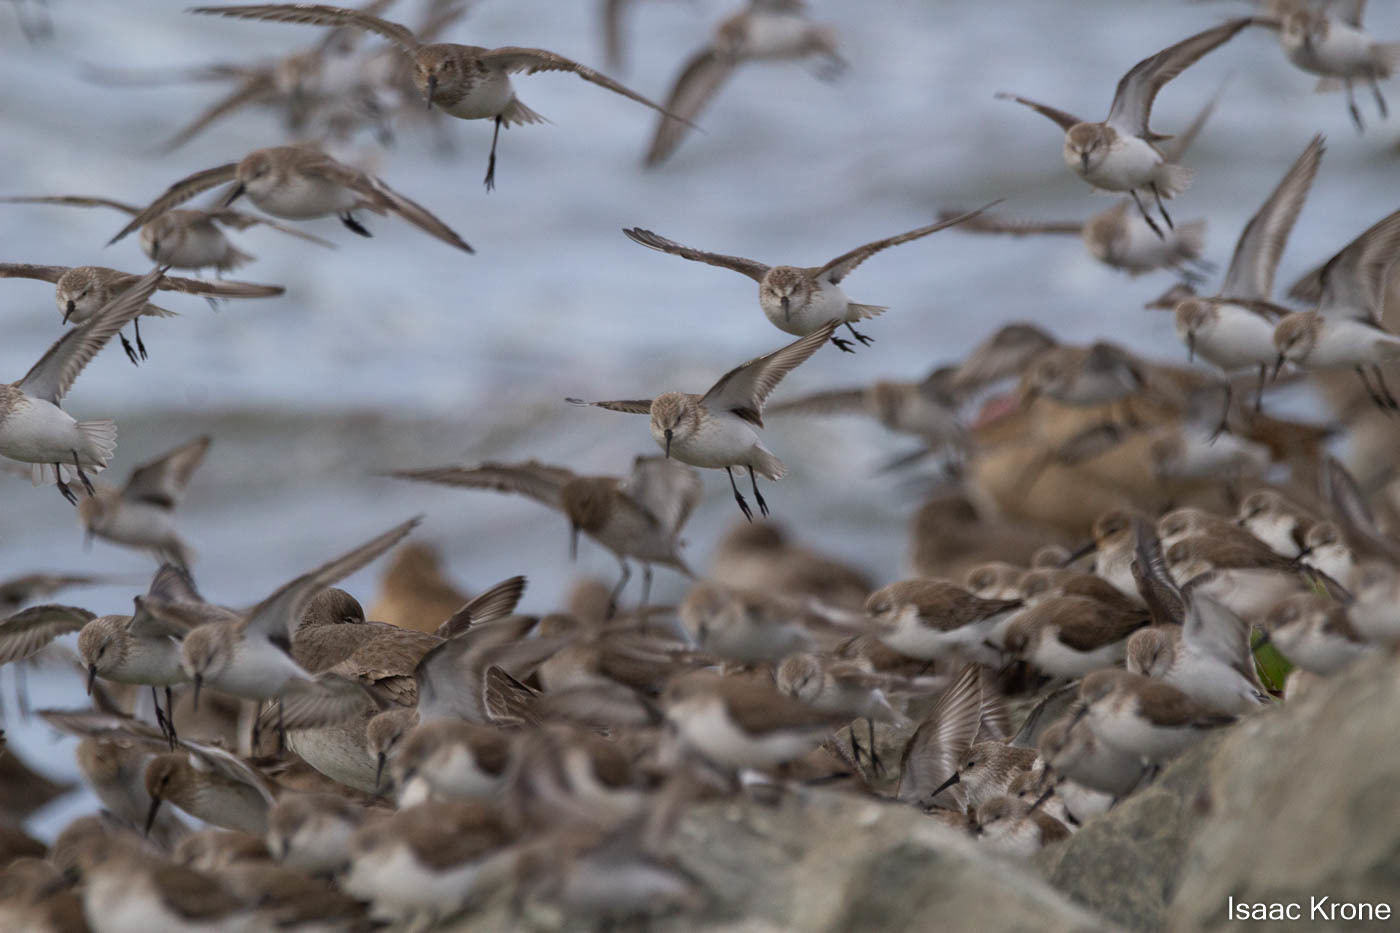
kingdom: Animalia
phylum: Chordata
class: Aves
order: Charadriiformes
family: Scolopacidae
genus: Calidris
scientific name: Calidris mauri
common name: Western sandpiper
